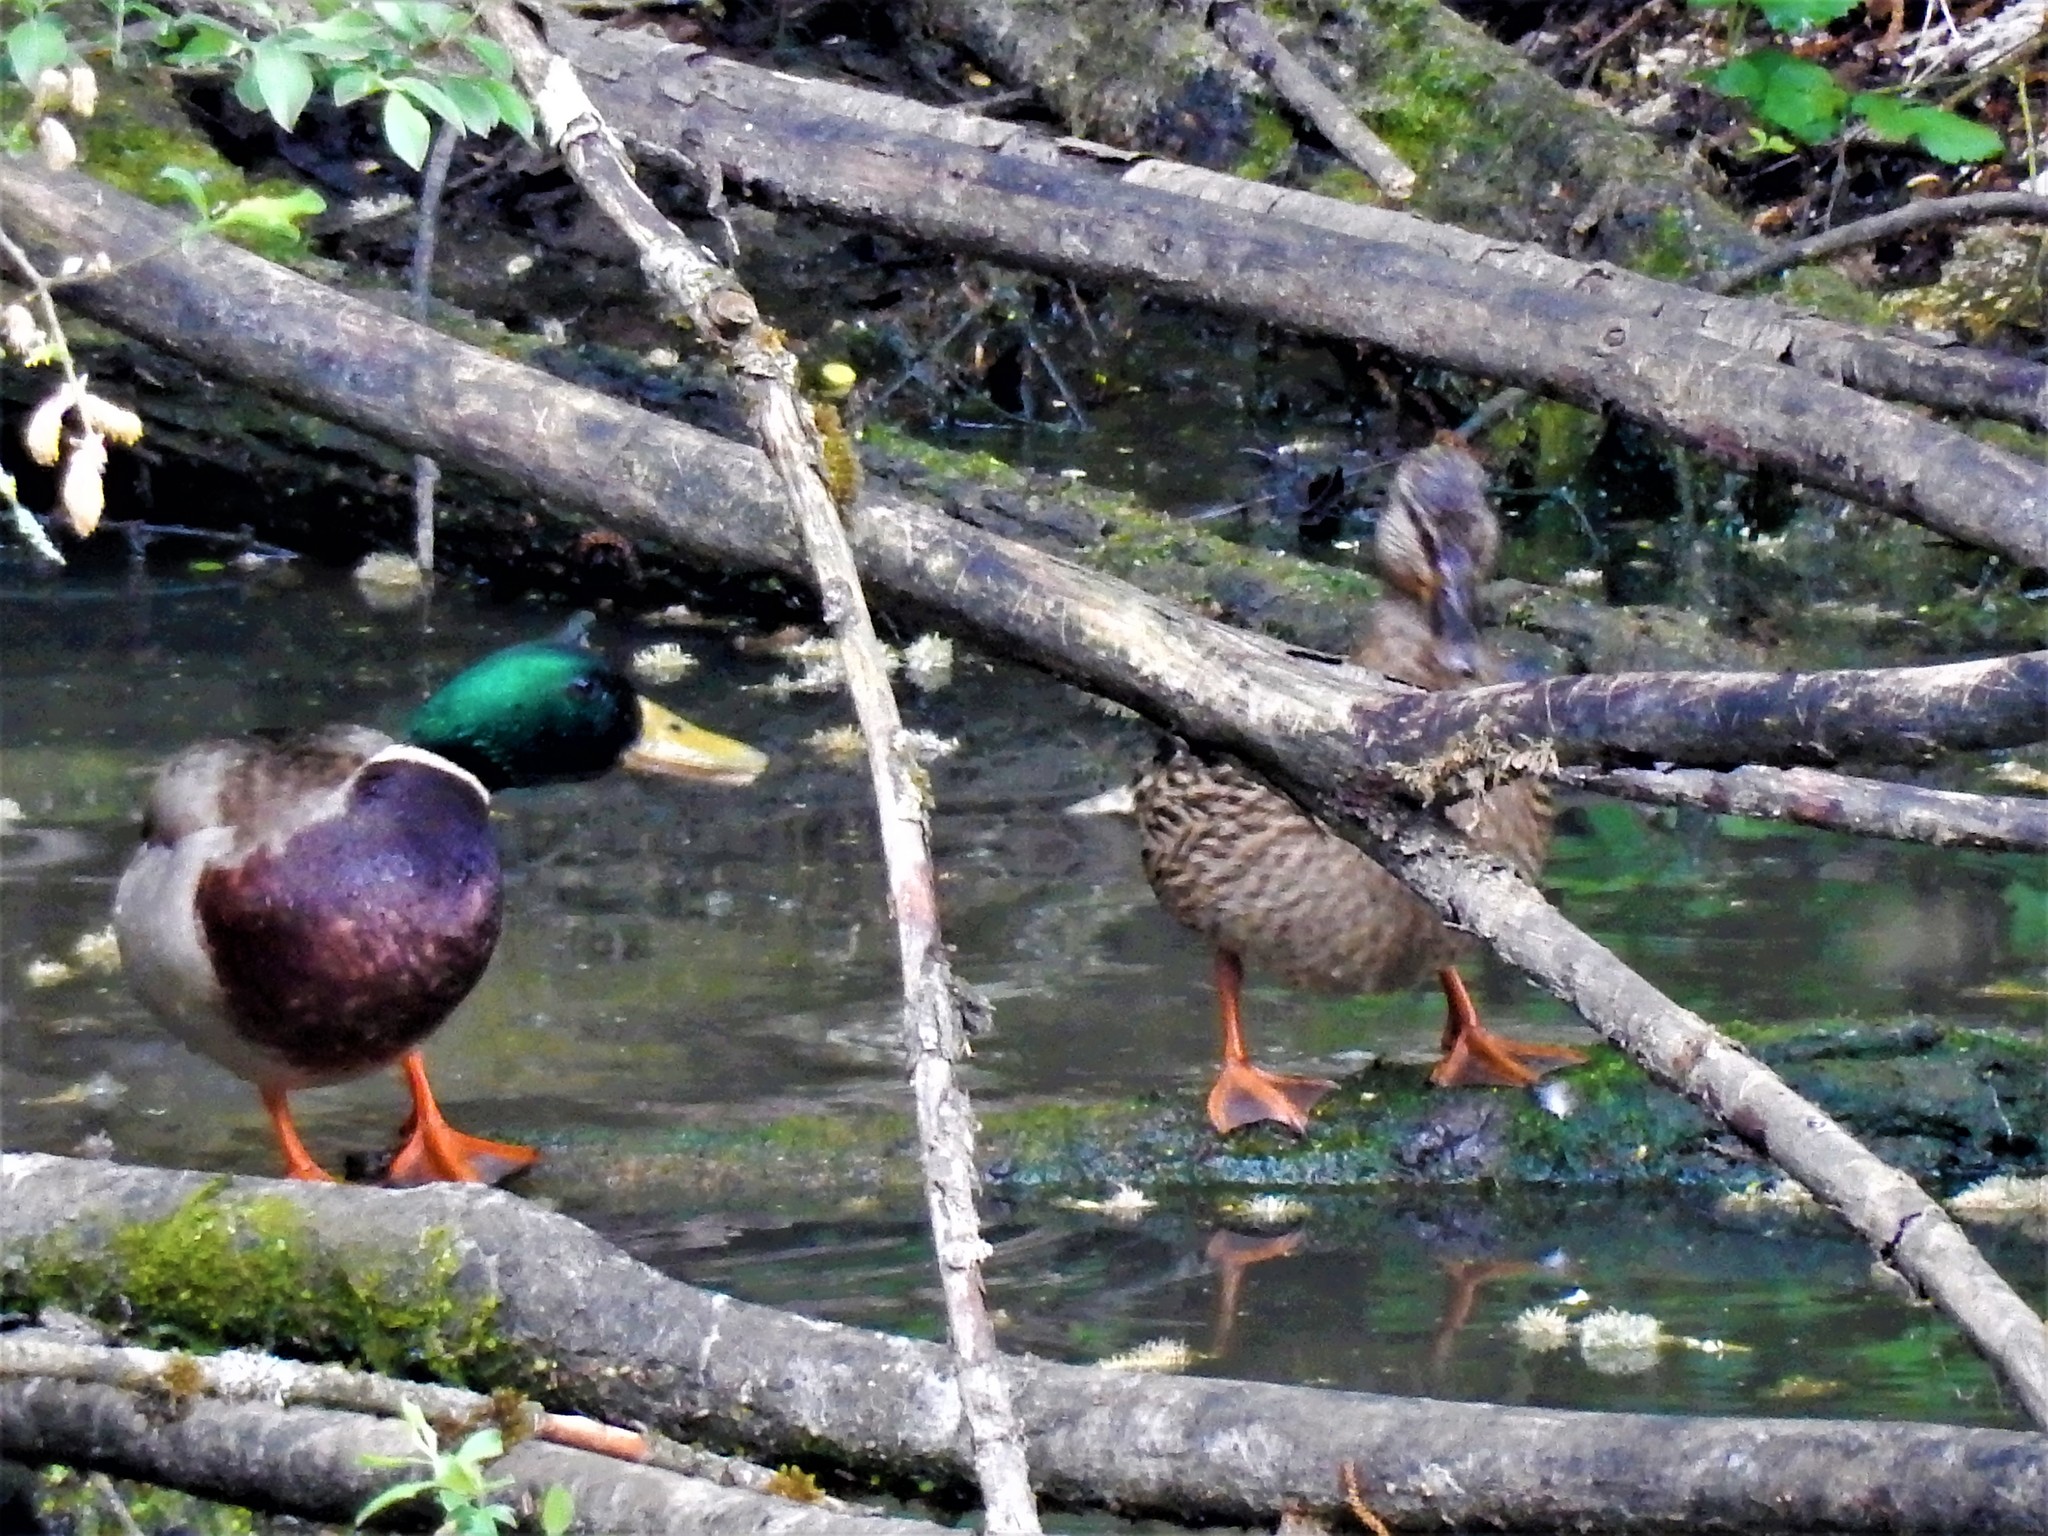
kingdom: Animalia
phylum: Chordata
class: Aves
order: Anseriformes
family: Anatidae
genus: Anas
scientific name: Anas platyrhynchos
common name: Mallard
